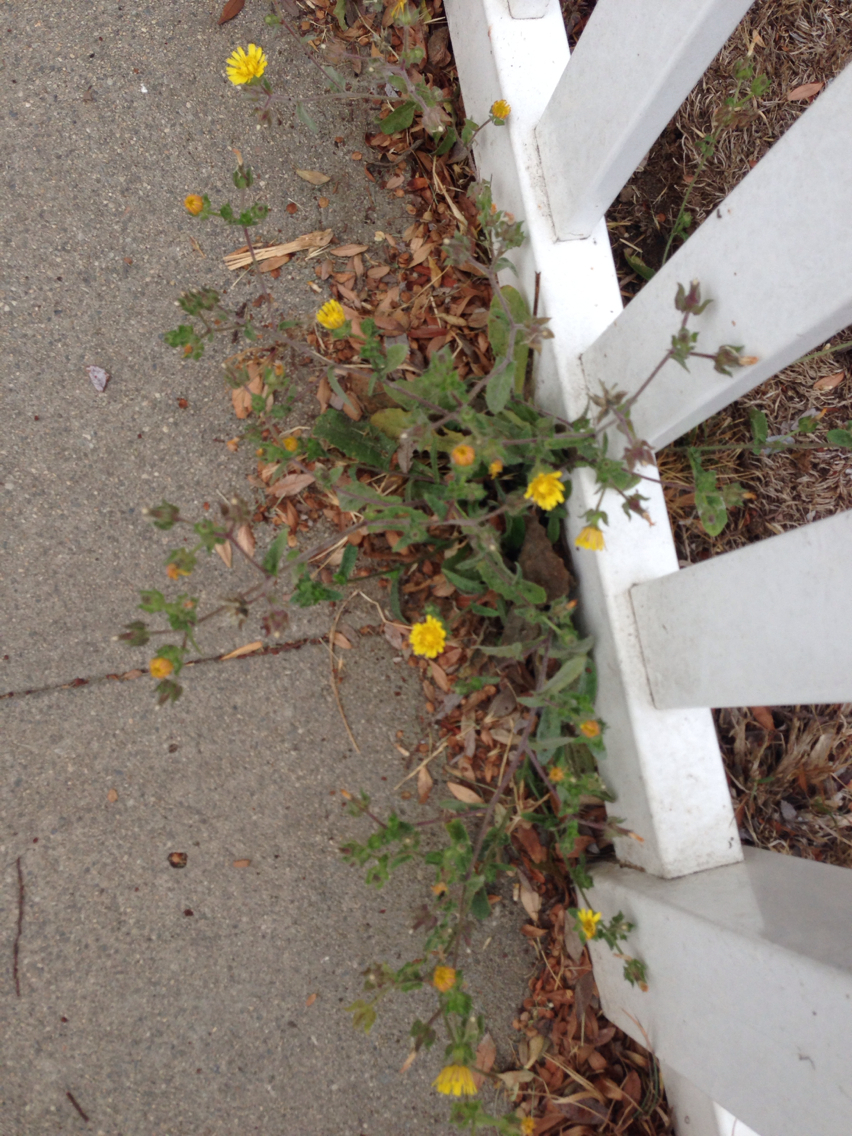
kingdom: Plantae
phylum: Tracheophyta
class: Magnoliopsida
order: Asterales
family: Asteraceae
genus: Helminthotheca
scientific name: Helminthotheca echioides
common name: Ox-tongue
